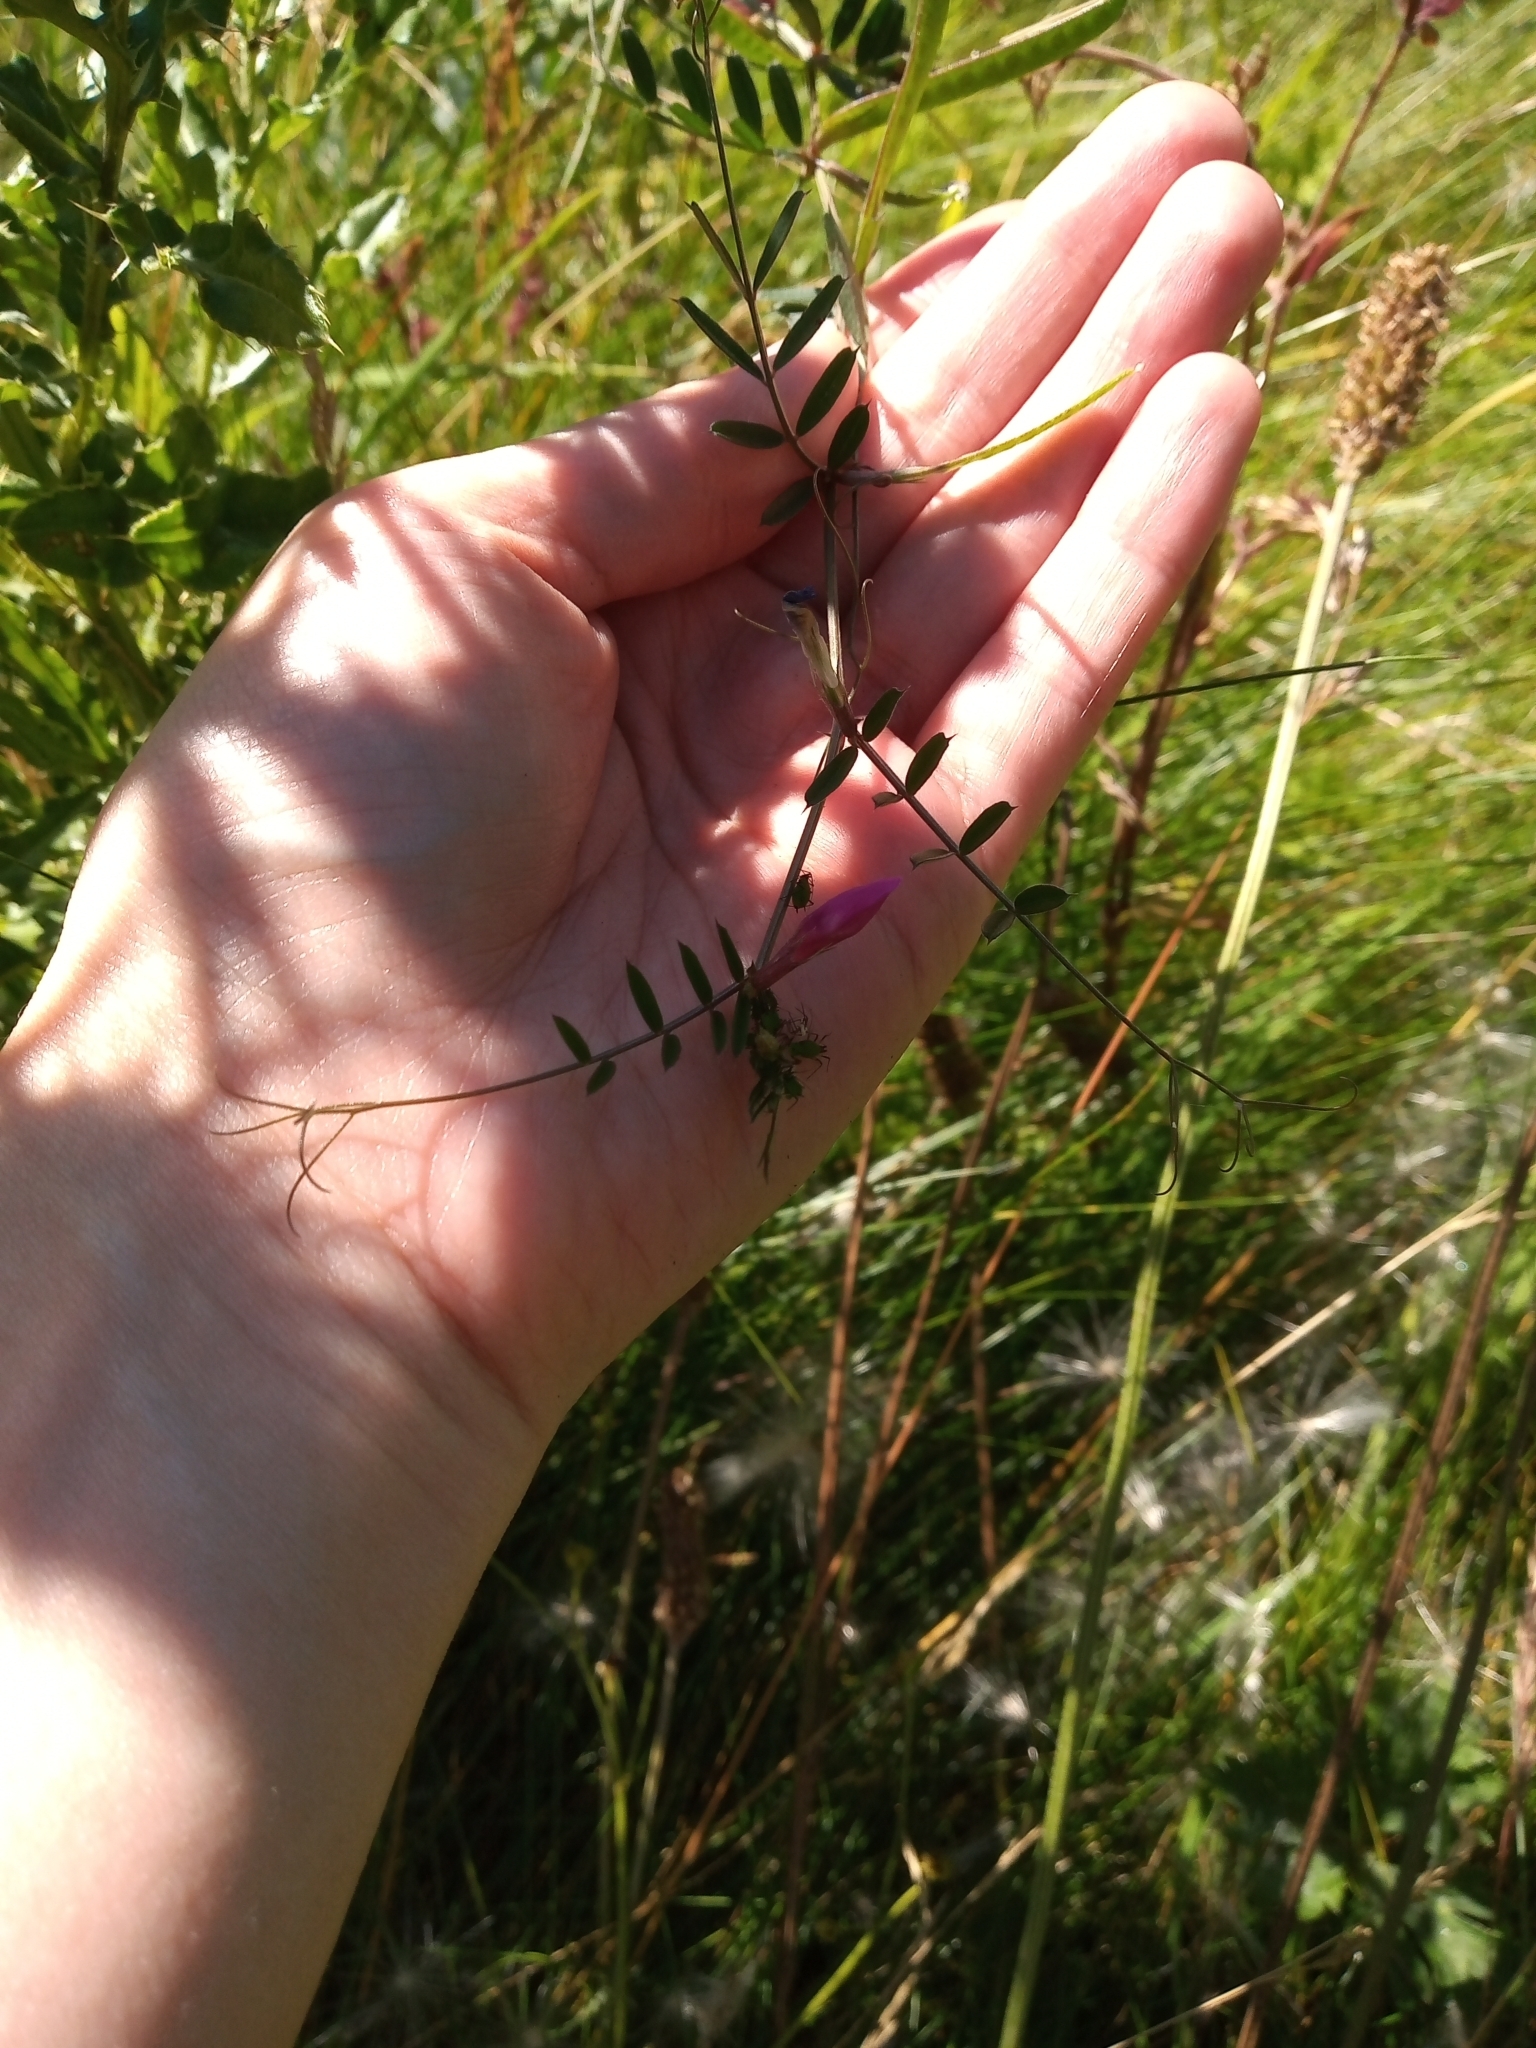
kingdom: Plantae
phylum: Tracheophyta
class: Magnoliopsida
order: Fabales
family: Fabaceae
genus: Vicia
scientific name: Vicia sativa
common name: Garden vetch
